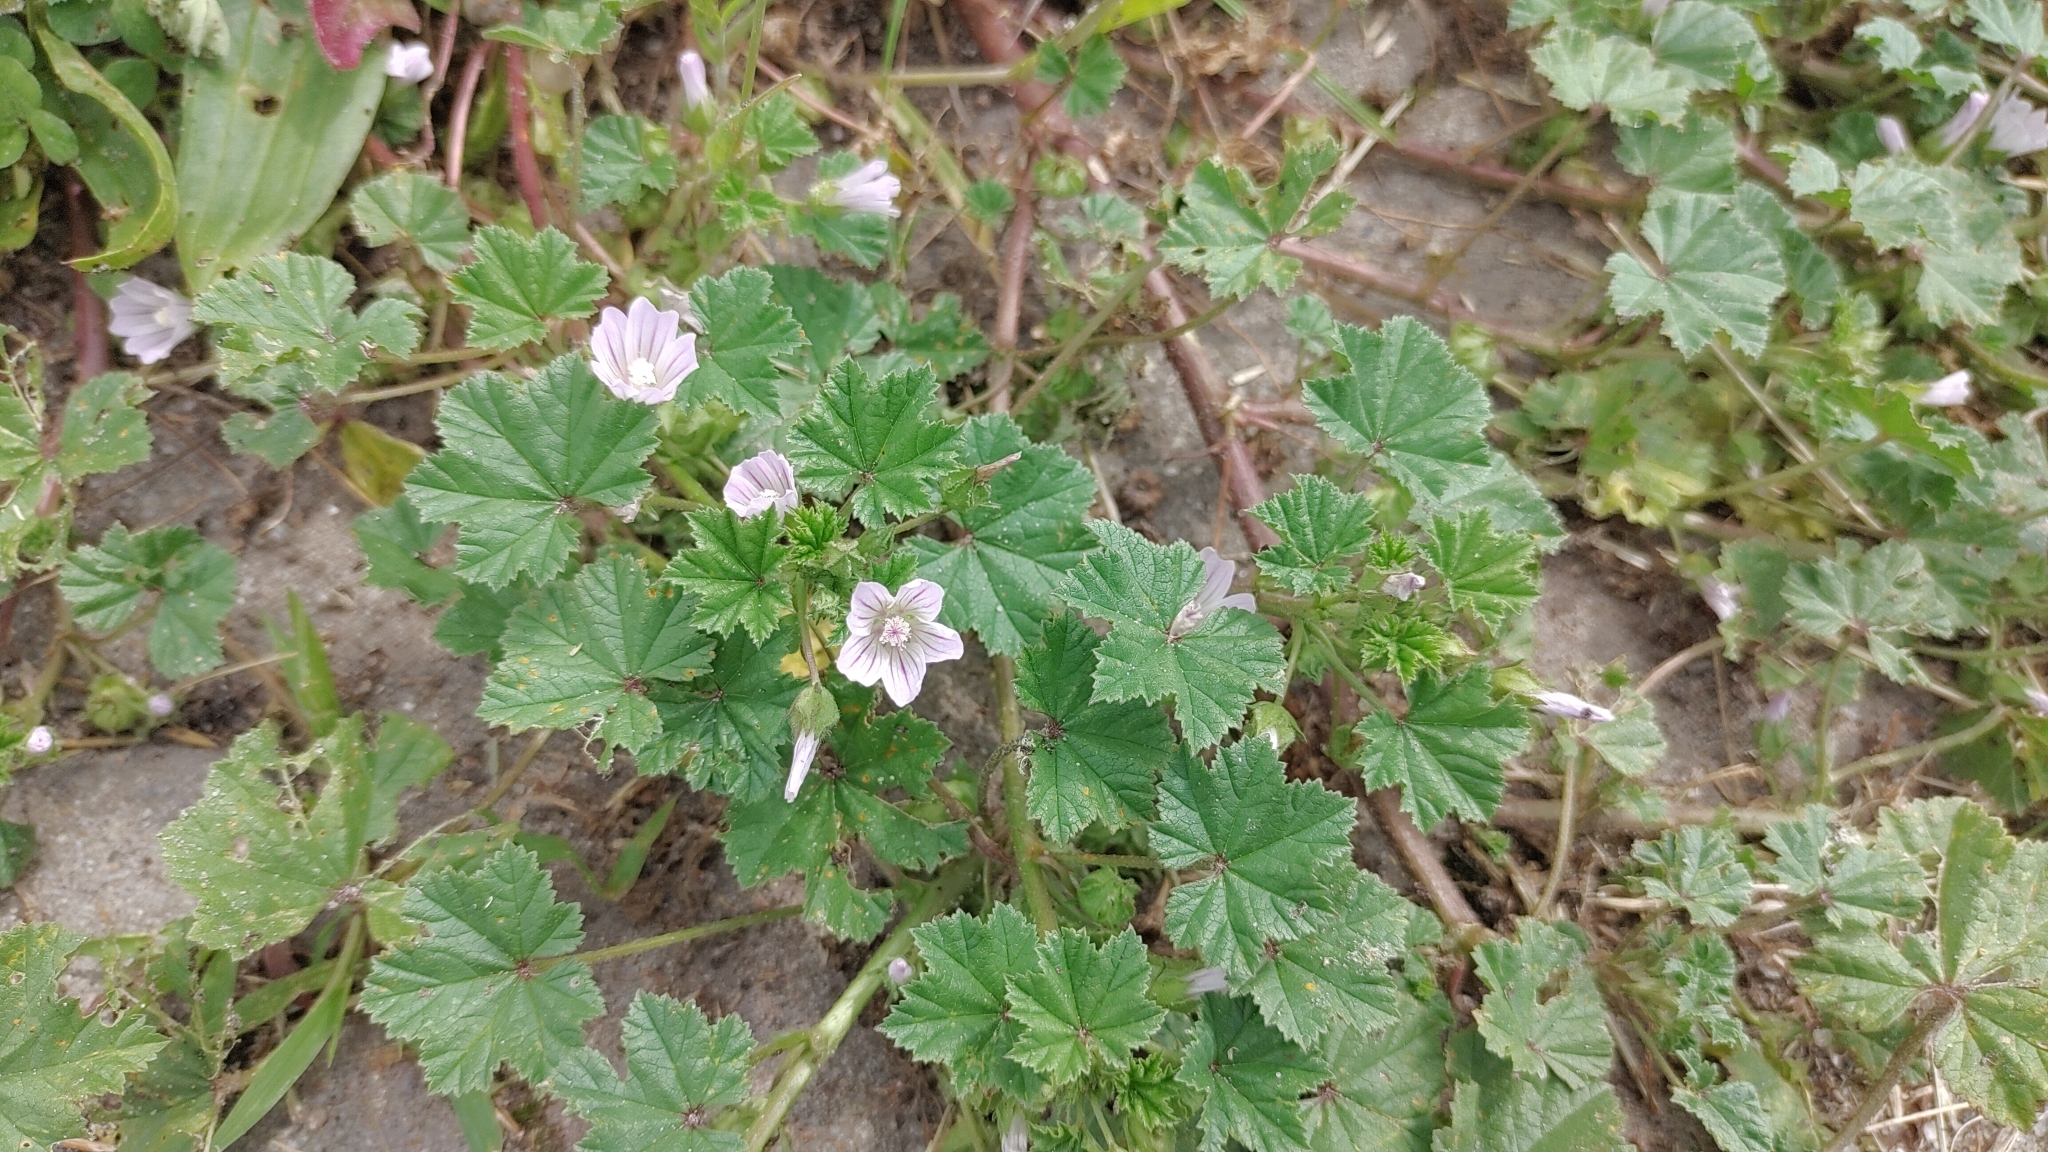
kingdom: Plantae
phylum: Tracheophyta
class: Magnoliopsida
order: Malvales
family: Malvaceae
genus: Malva
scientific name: Malva neglecta
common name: Common mallow
